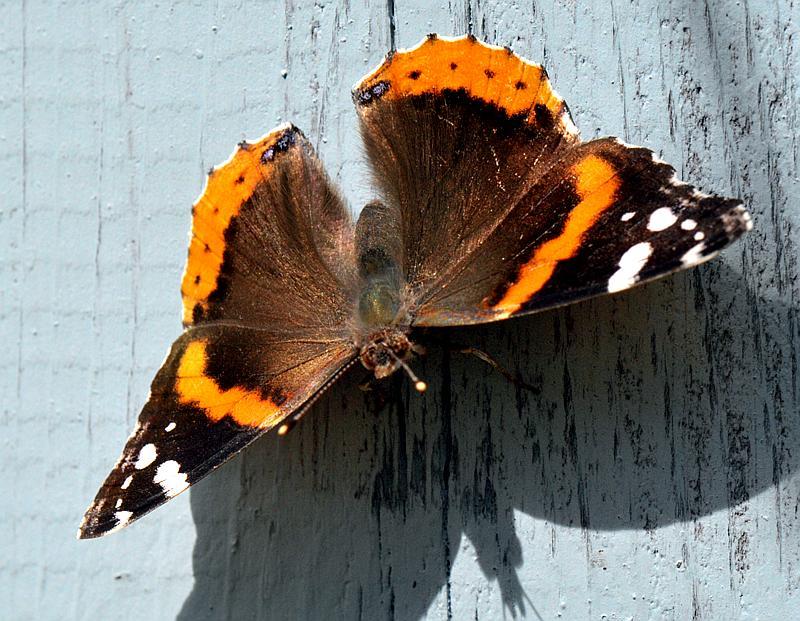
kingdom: Animalia
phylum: Arthropoda
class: Insecta
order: Lepidoptera
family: Nymphalidae
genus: Vanessa
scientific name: Vanessa atalanta
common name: Red admiral
